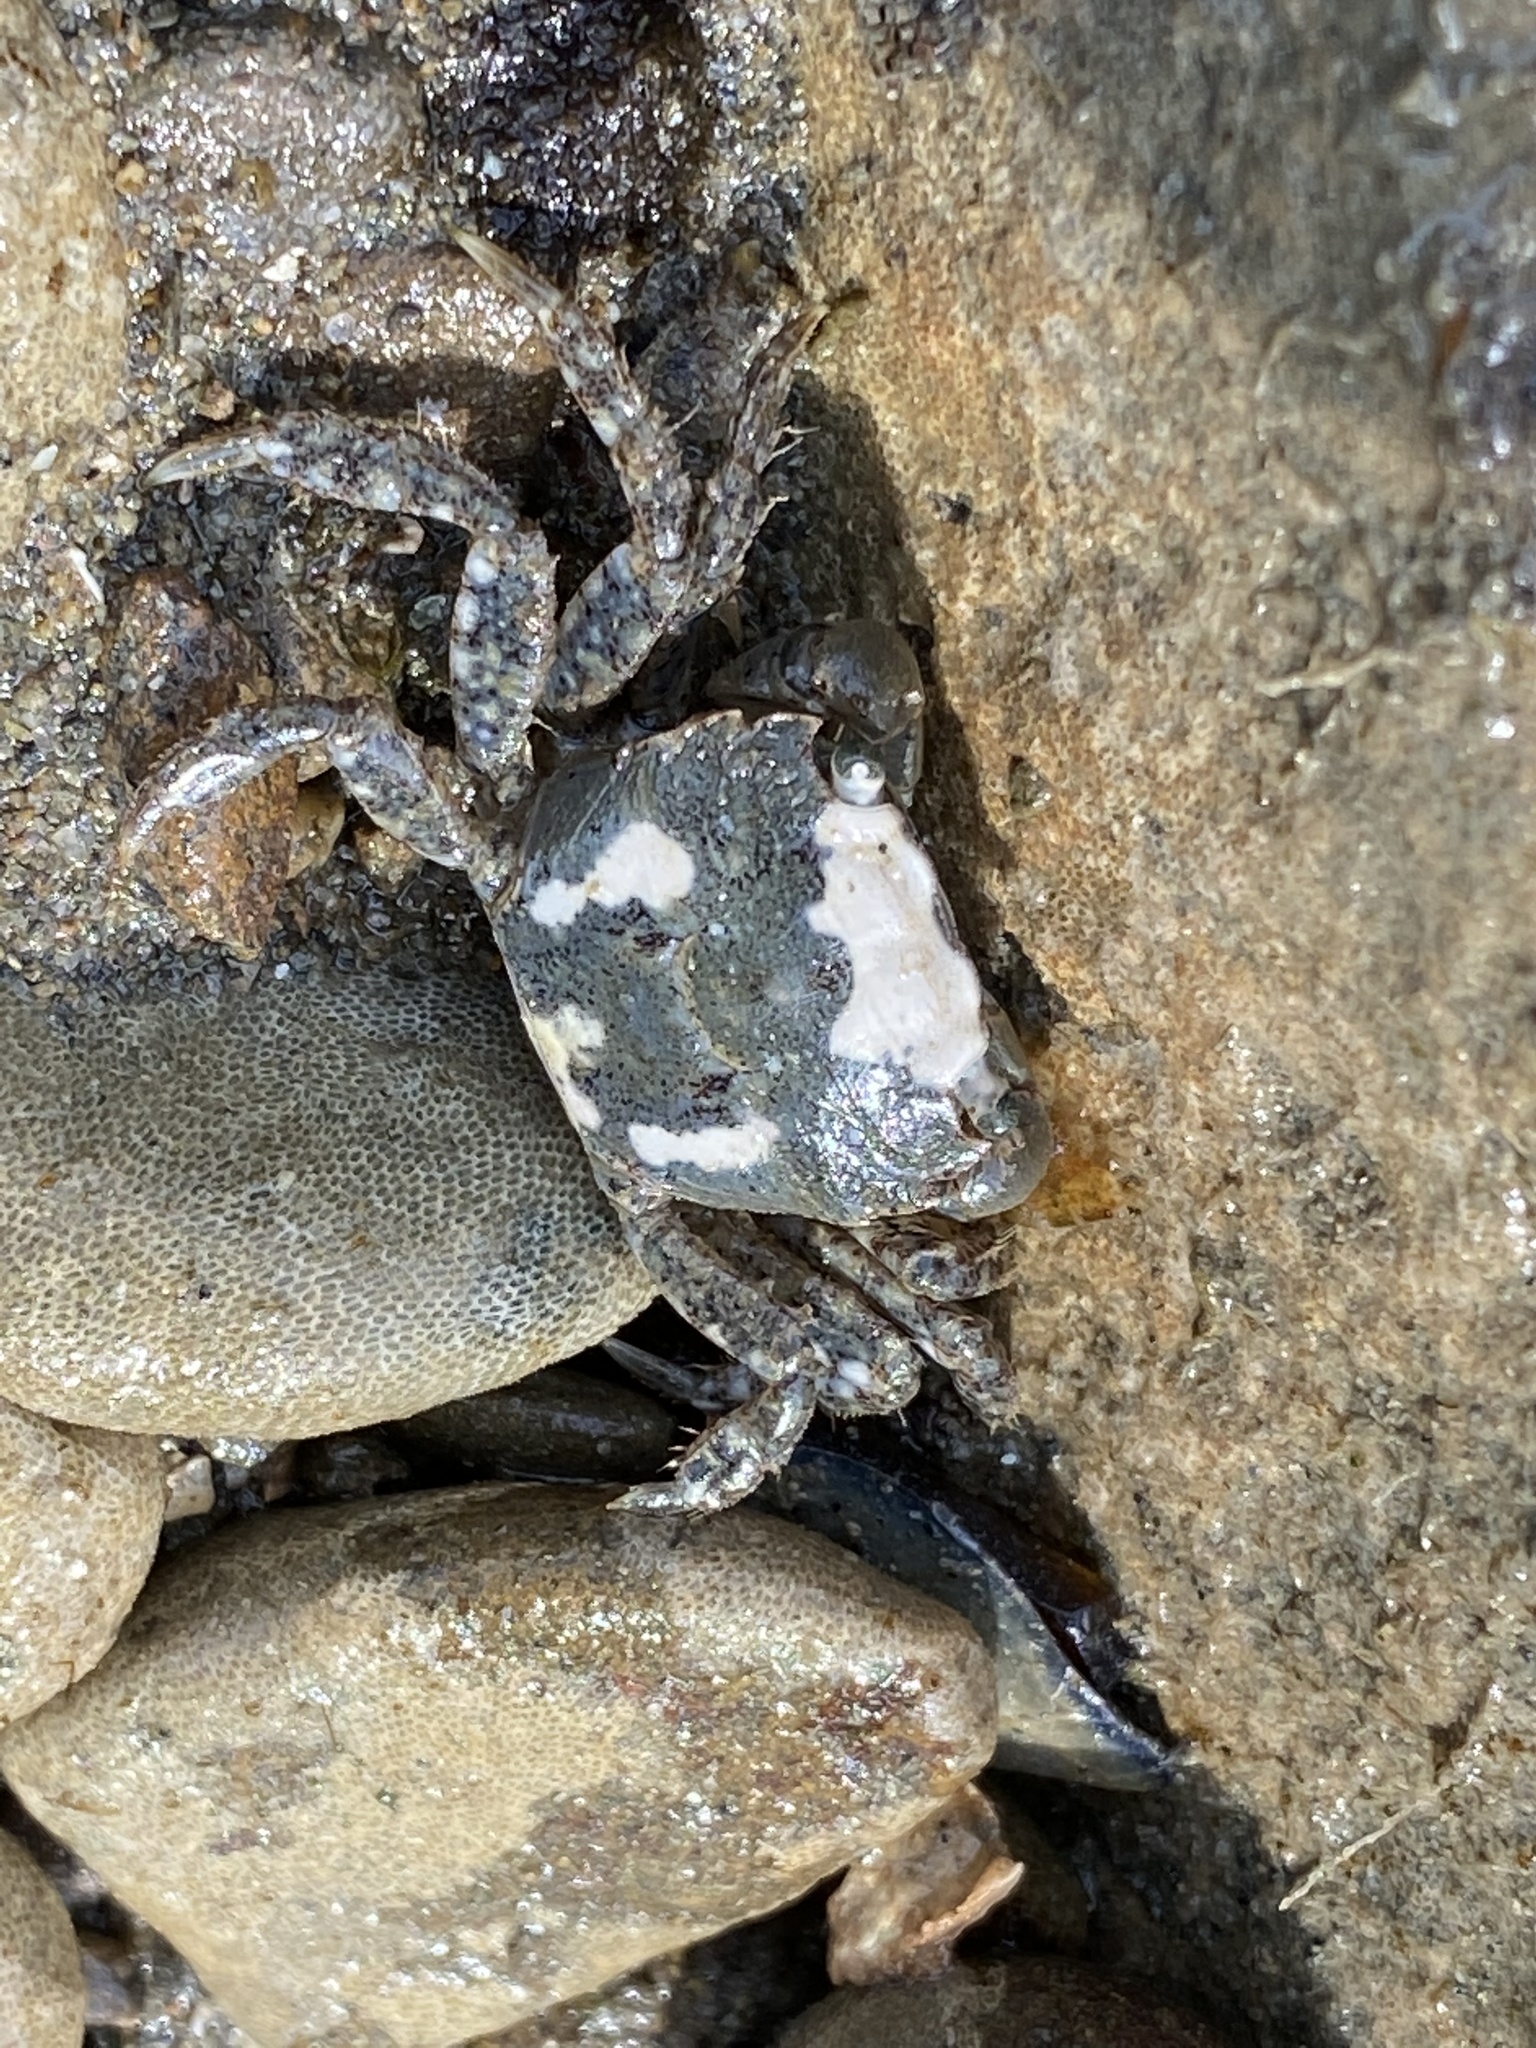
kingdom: Animalia
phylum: Arthropoda
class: Malacostraca
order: Decapoda
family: Varunidae
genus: Hemigrapsus
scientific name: Hemigrapsus oregonensis
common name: Yellow shore crab
